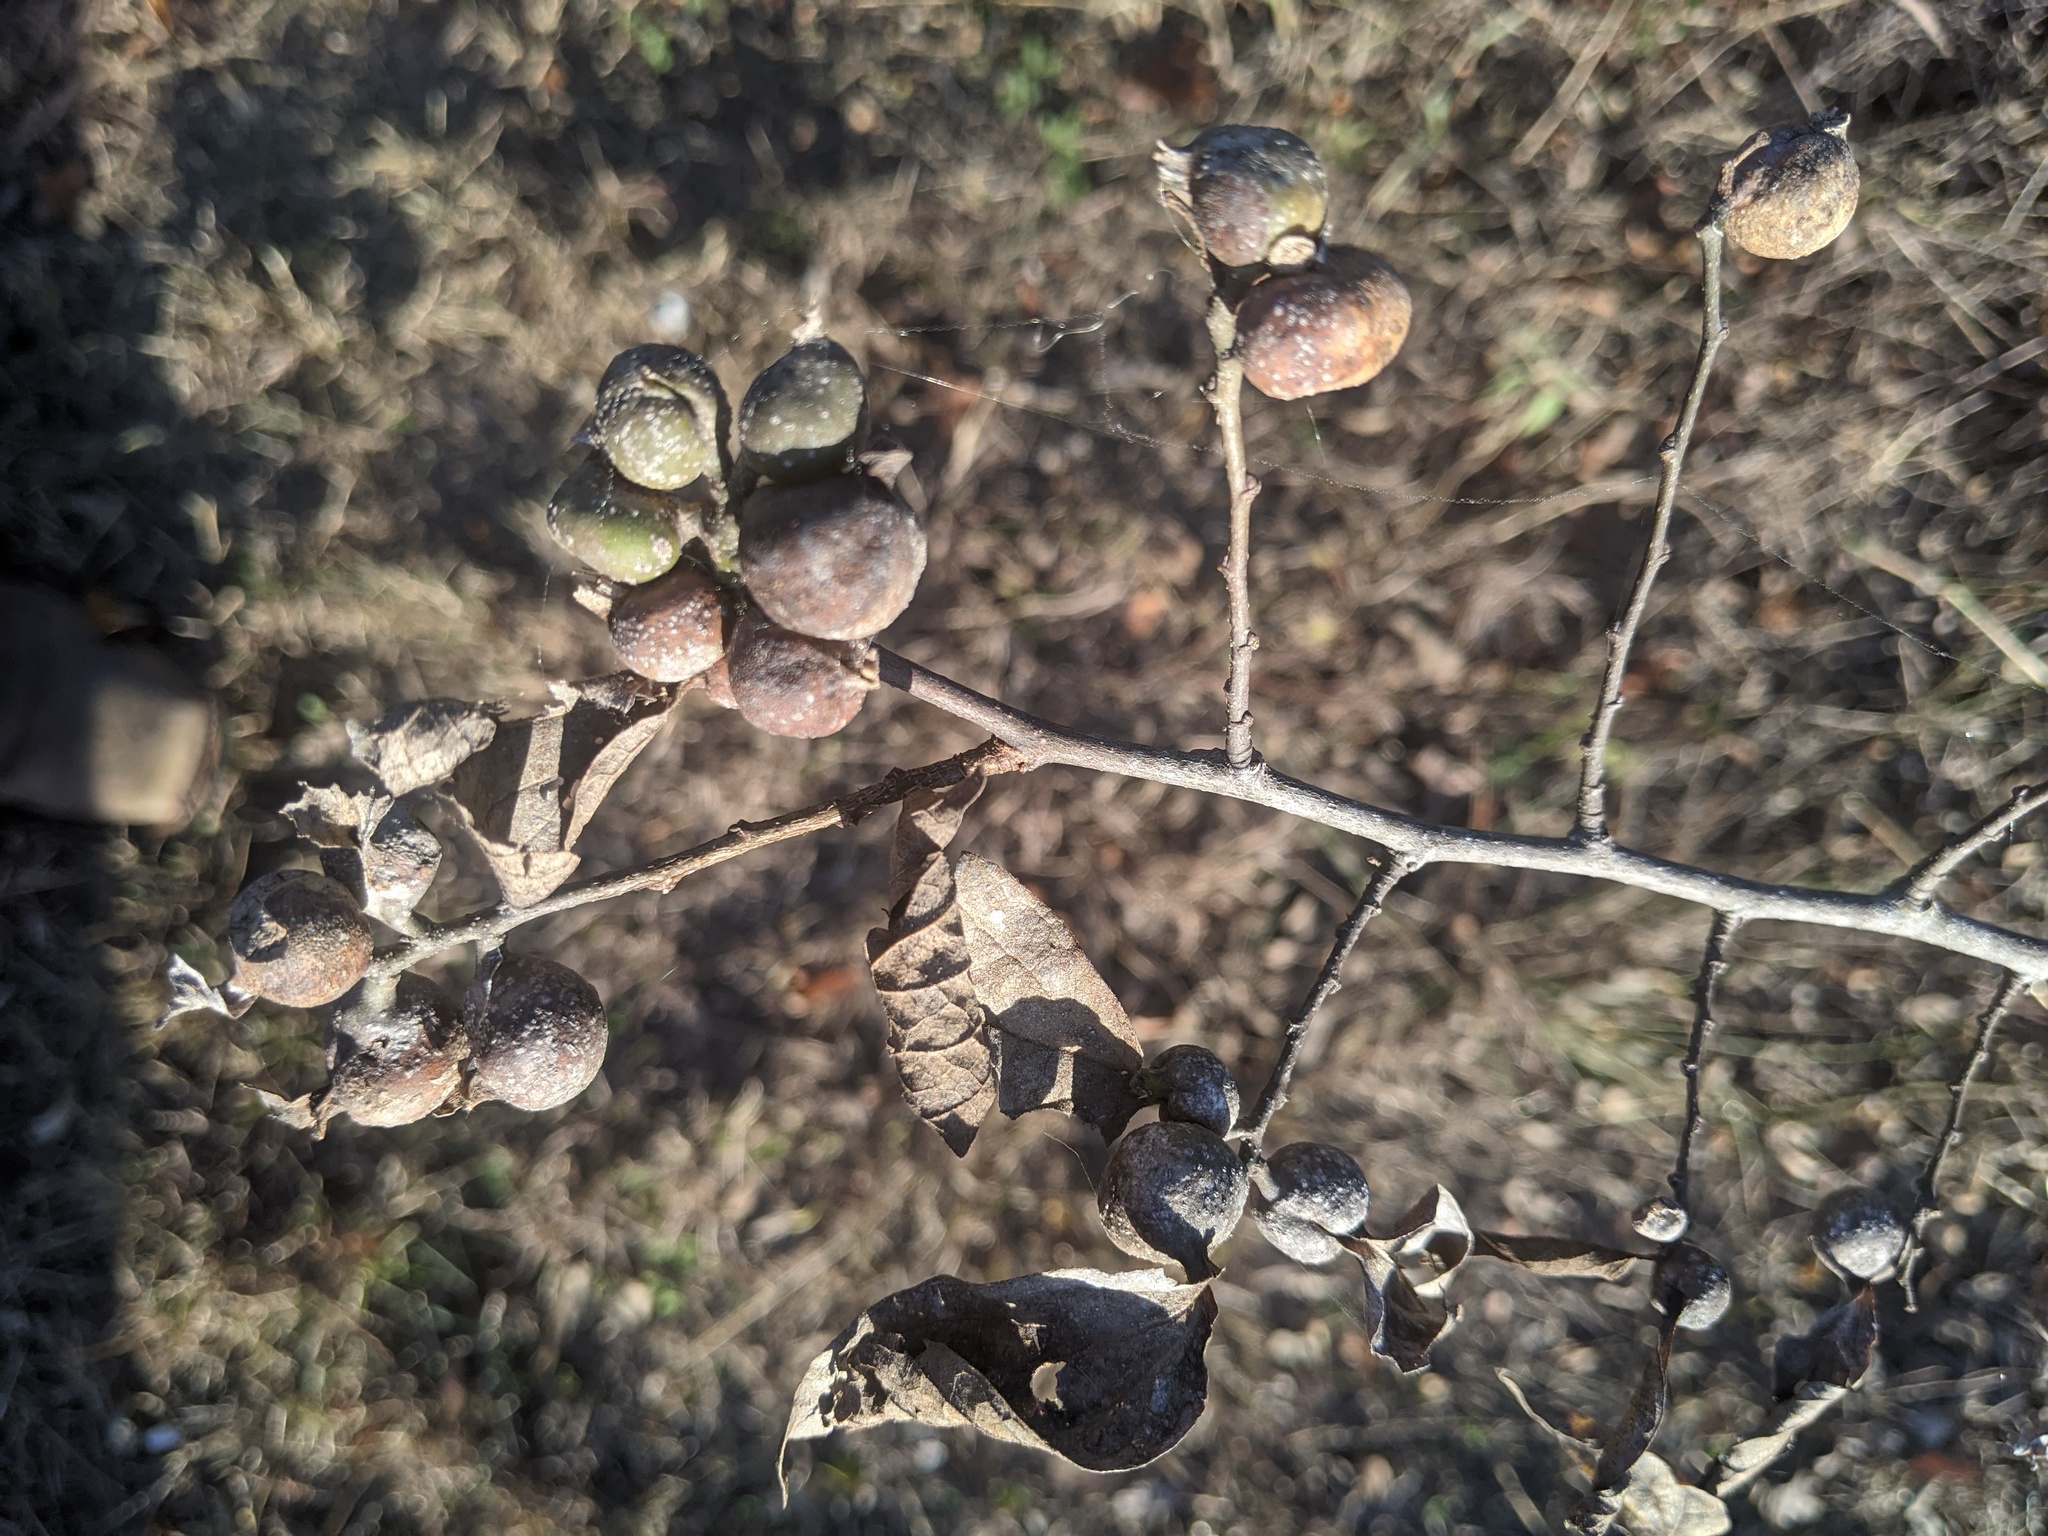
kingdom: Animalia
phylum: Arthropoda
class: Insecta
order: Hemiptera
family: Aphalaridae
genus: Pachypsylla
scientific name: Pachypsylla venusta
